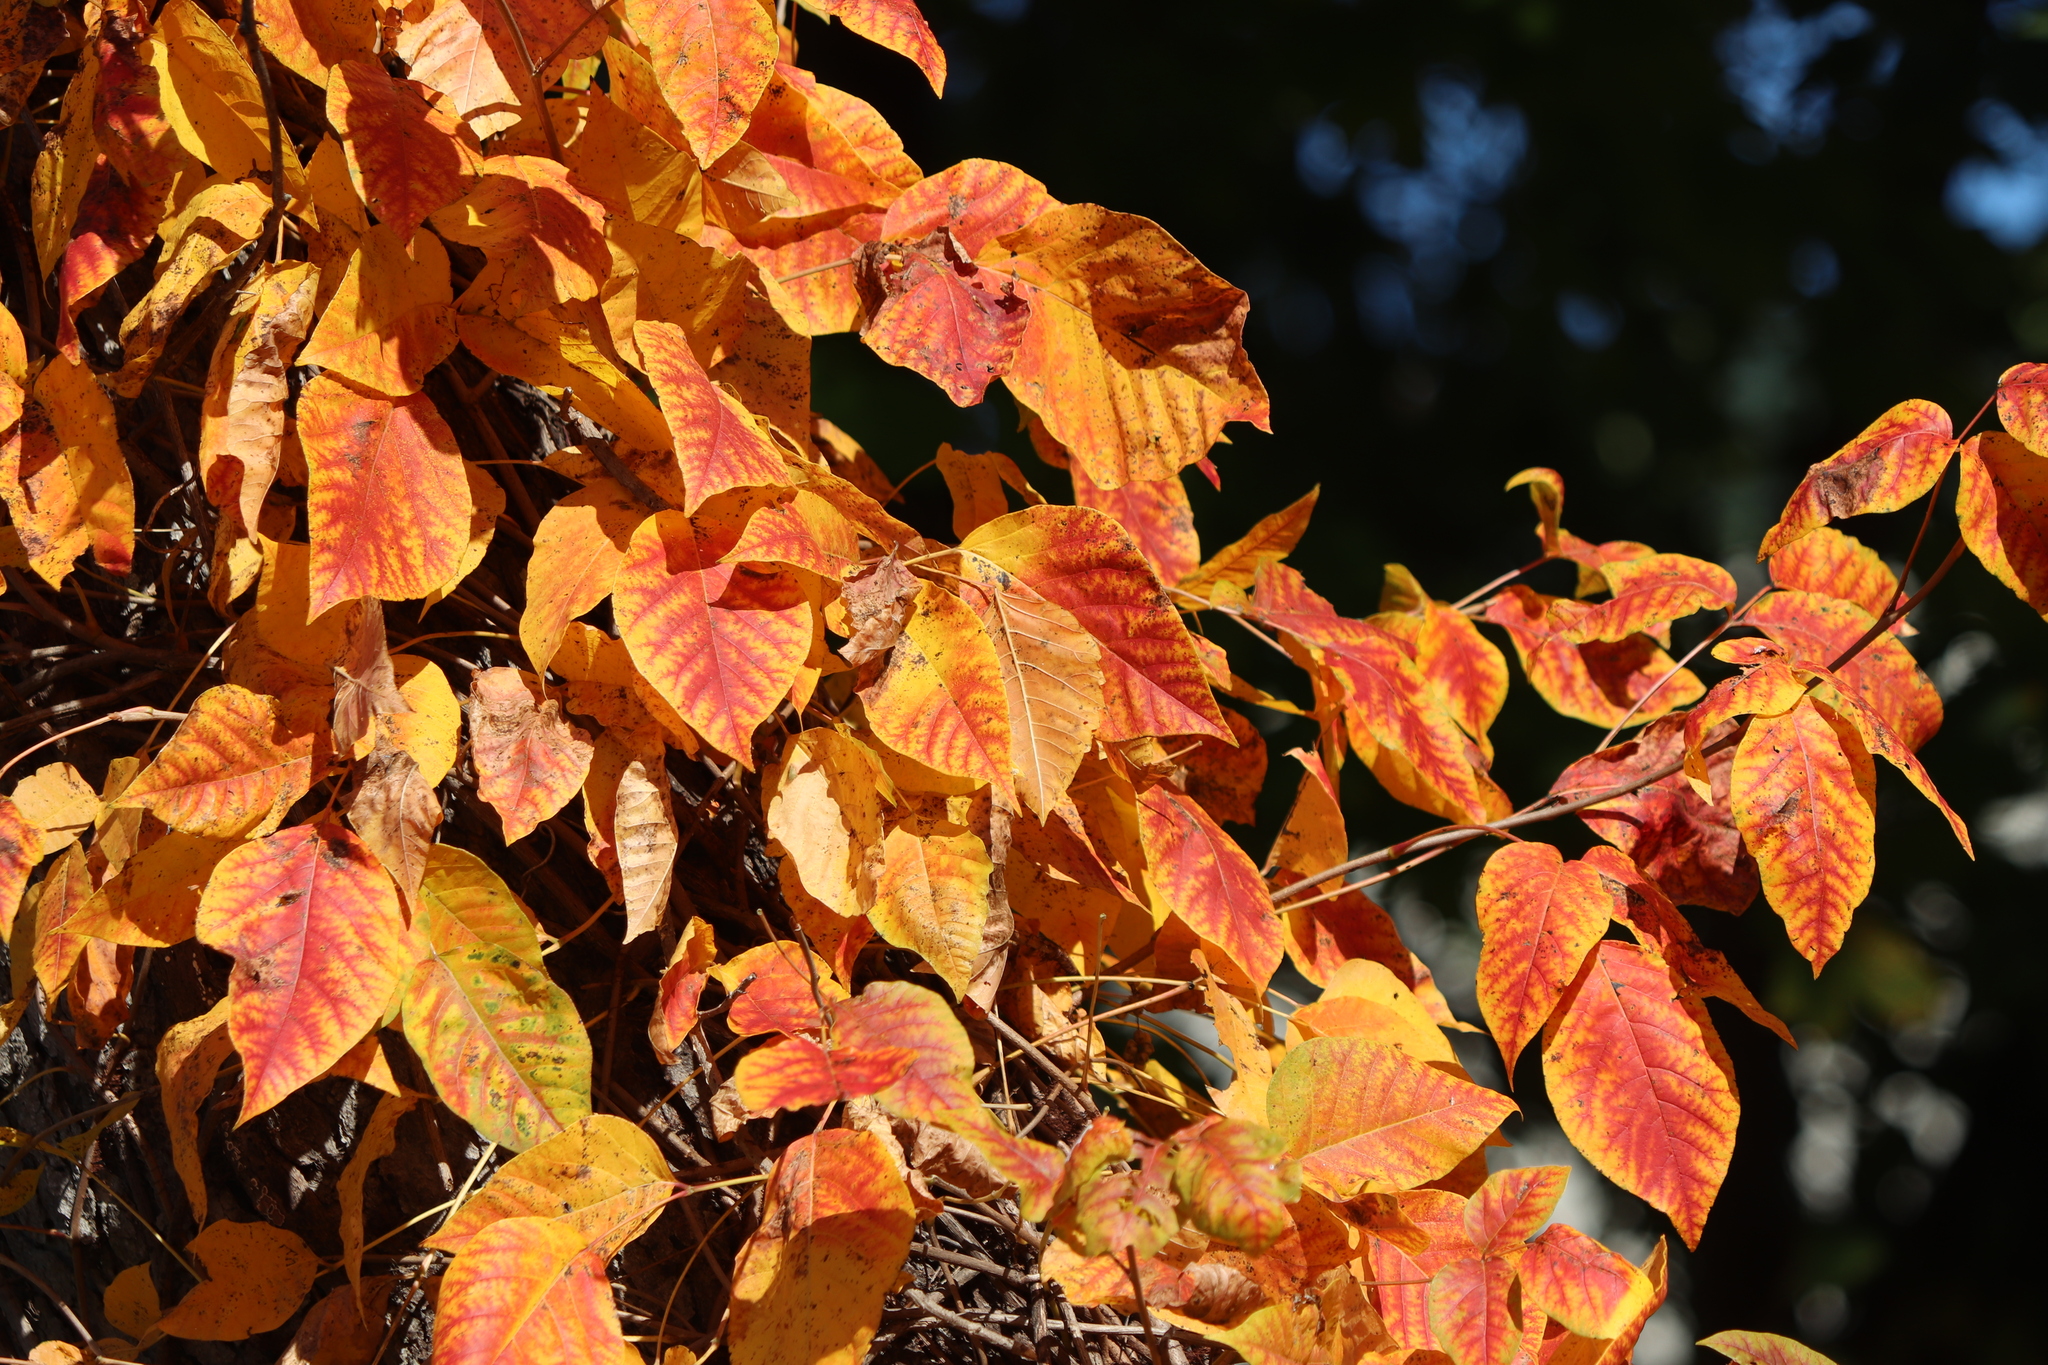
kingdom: Plantae
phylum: Tracheophyta
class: Magnoliopsida
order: Sapindales
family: Anacardiaceae
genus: Toxicodendron
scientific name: Toxicodendron radicans
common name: Poison ivy
